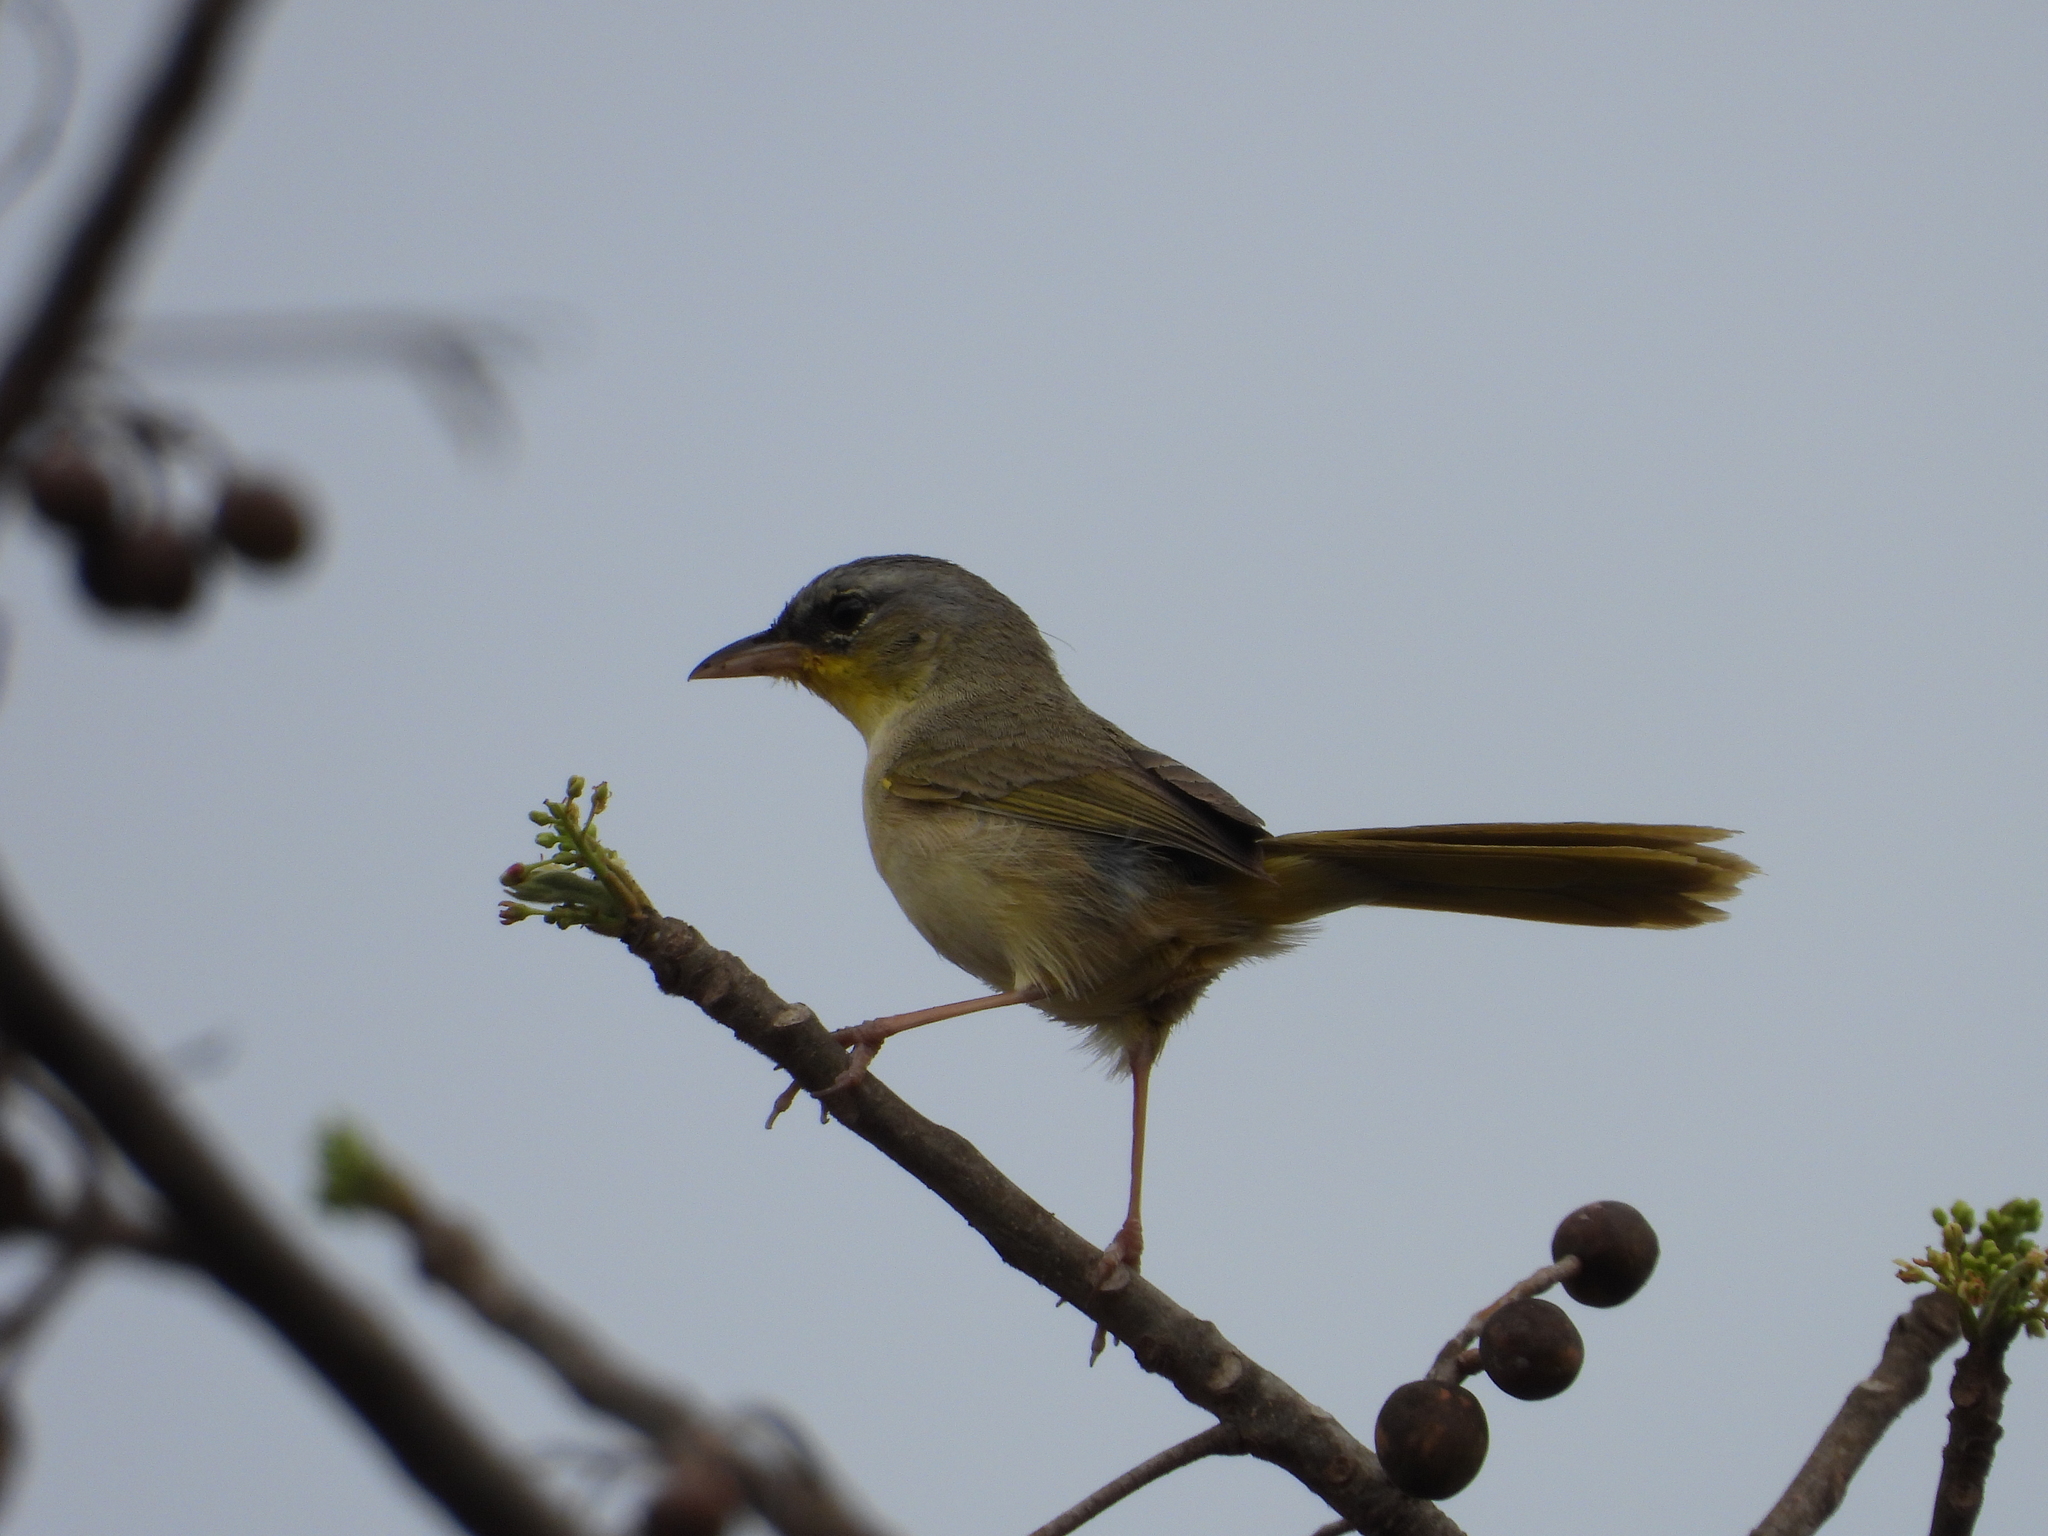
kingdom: Animalia
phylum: Chordata
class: Aves
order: Passeriformes
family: Parulidae
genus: Geothlypis
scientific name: Geothlypis poliocephala
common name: Gray-crowned yellowthroat
